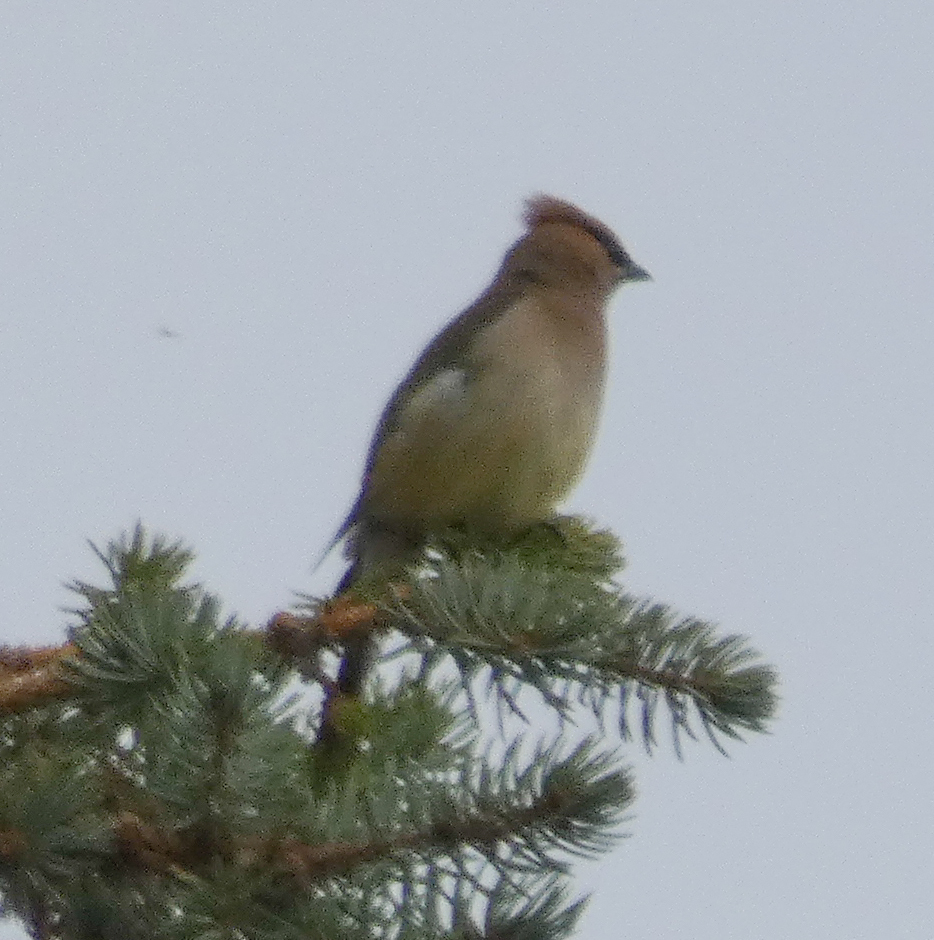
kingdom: Animalia
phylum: Chordata
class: Aves
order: Passeriformes
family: Bombycillidae
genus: Bombycilla
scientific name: Bombycilla cedrorum
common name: Cedar waxwing
